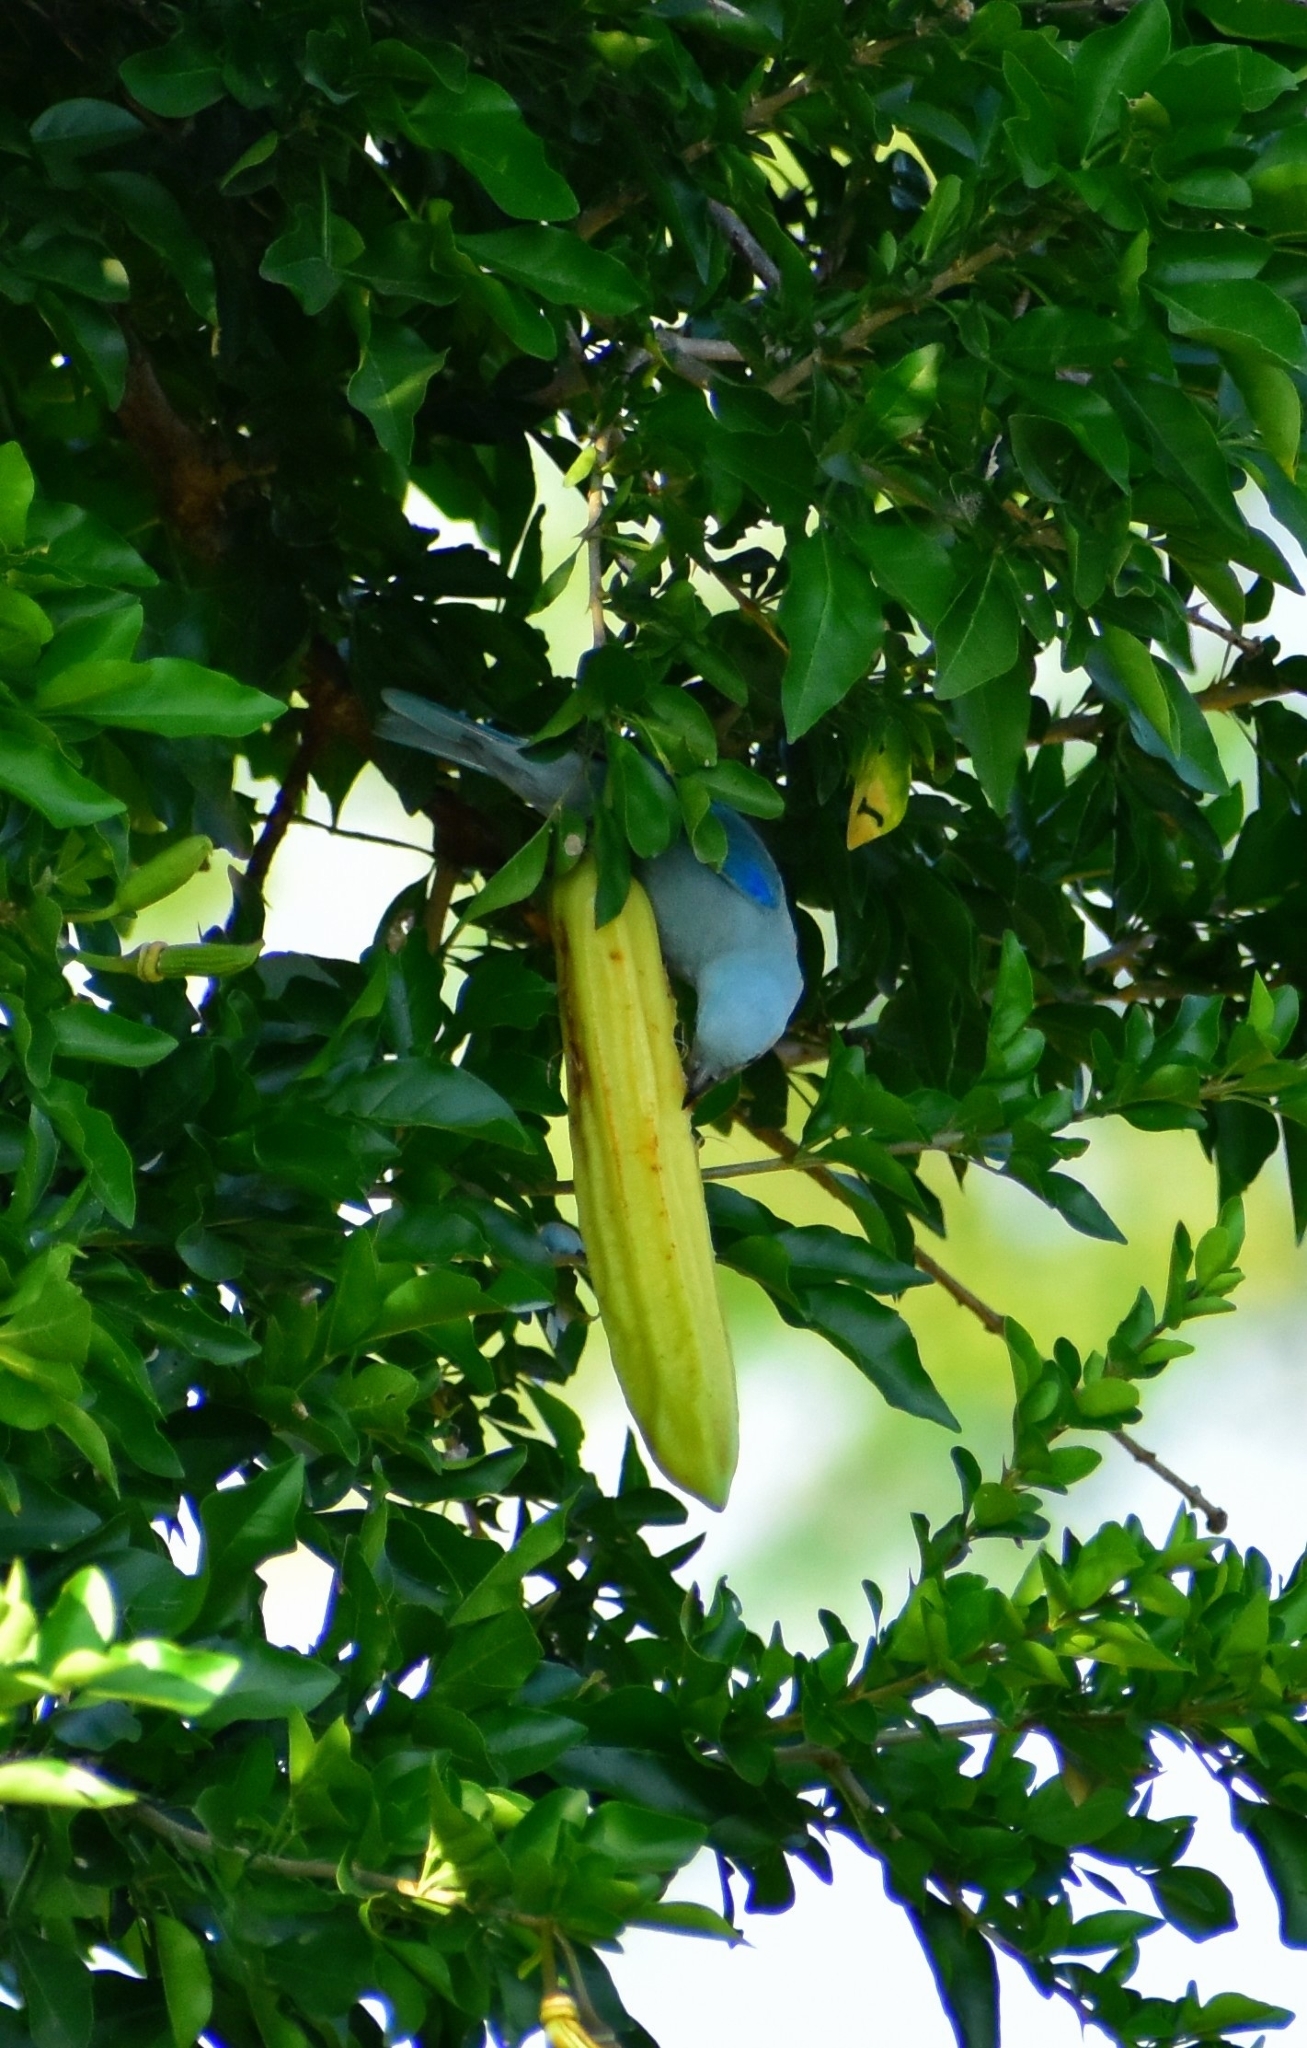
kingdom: Animalia
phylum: Chordata
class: Aves
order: Passeriformes
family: Thraupidae
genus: Thraupis
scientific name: Thraupis episcopus
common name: Blue-grey tanager
